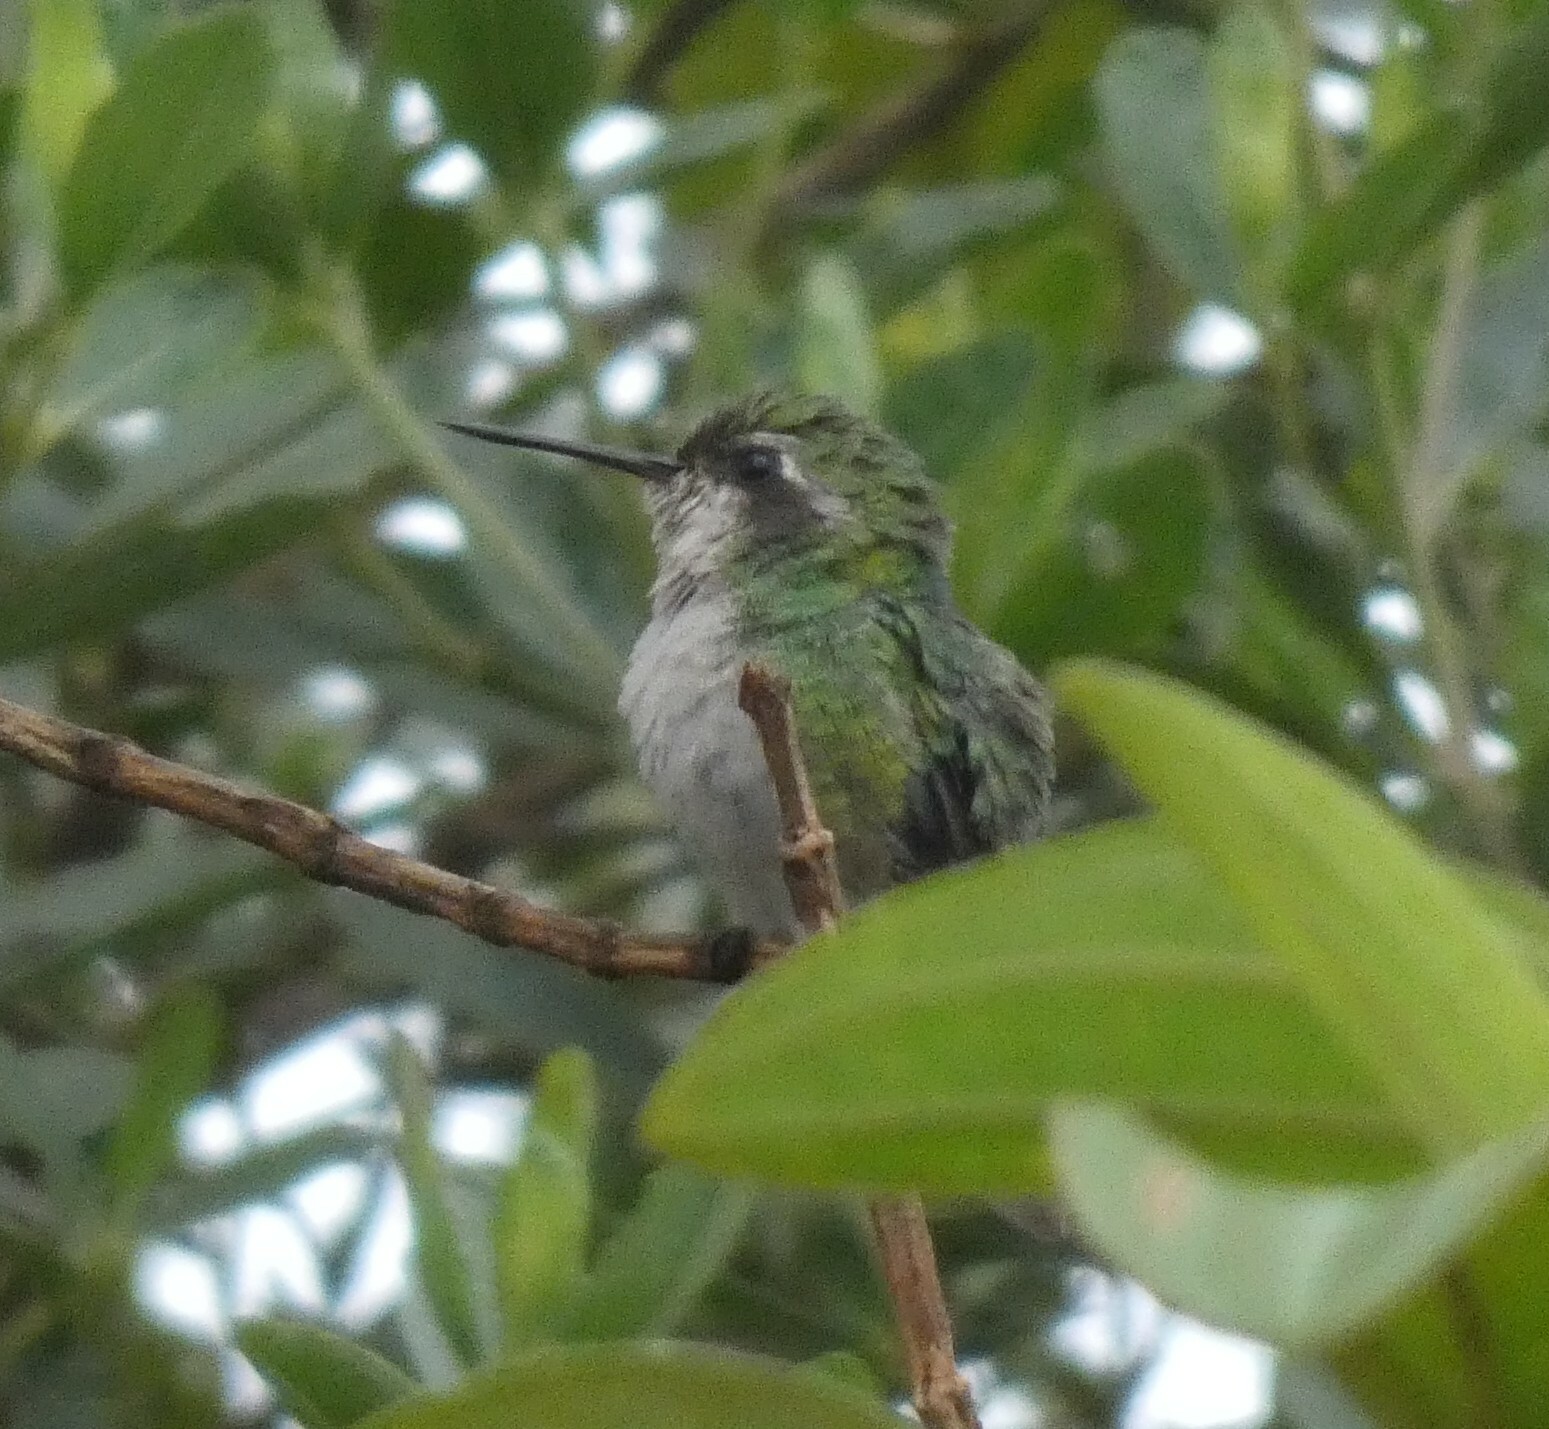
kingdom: Animalia
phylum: Chordata
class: Aves
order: Apodiformes
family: Trochilidae
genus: Chlorostilbon
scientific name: Chlorostilbon lucidus
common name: Glittering-bellied emerald
